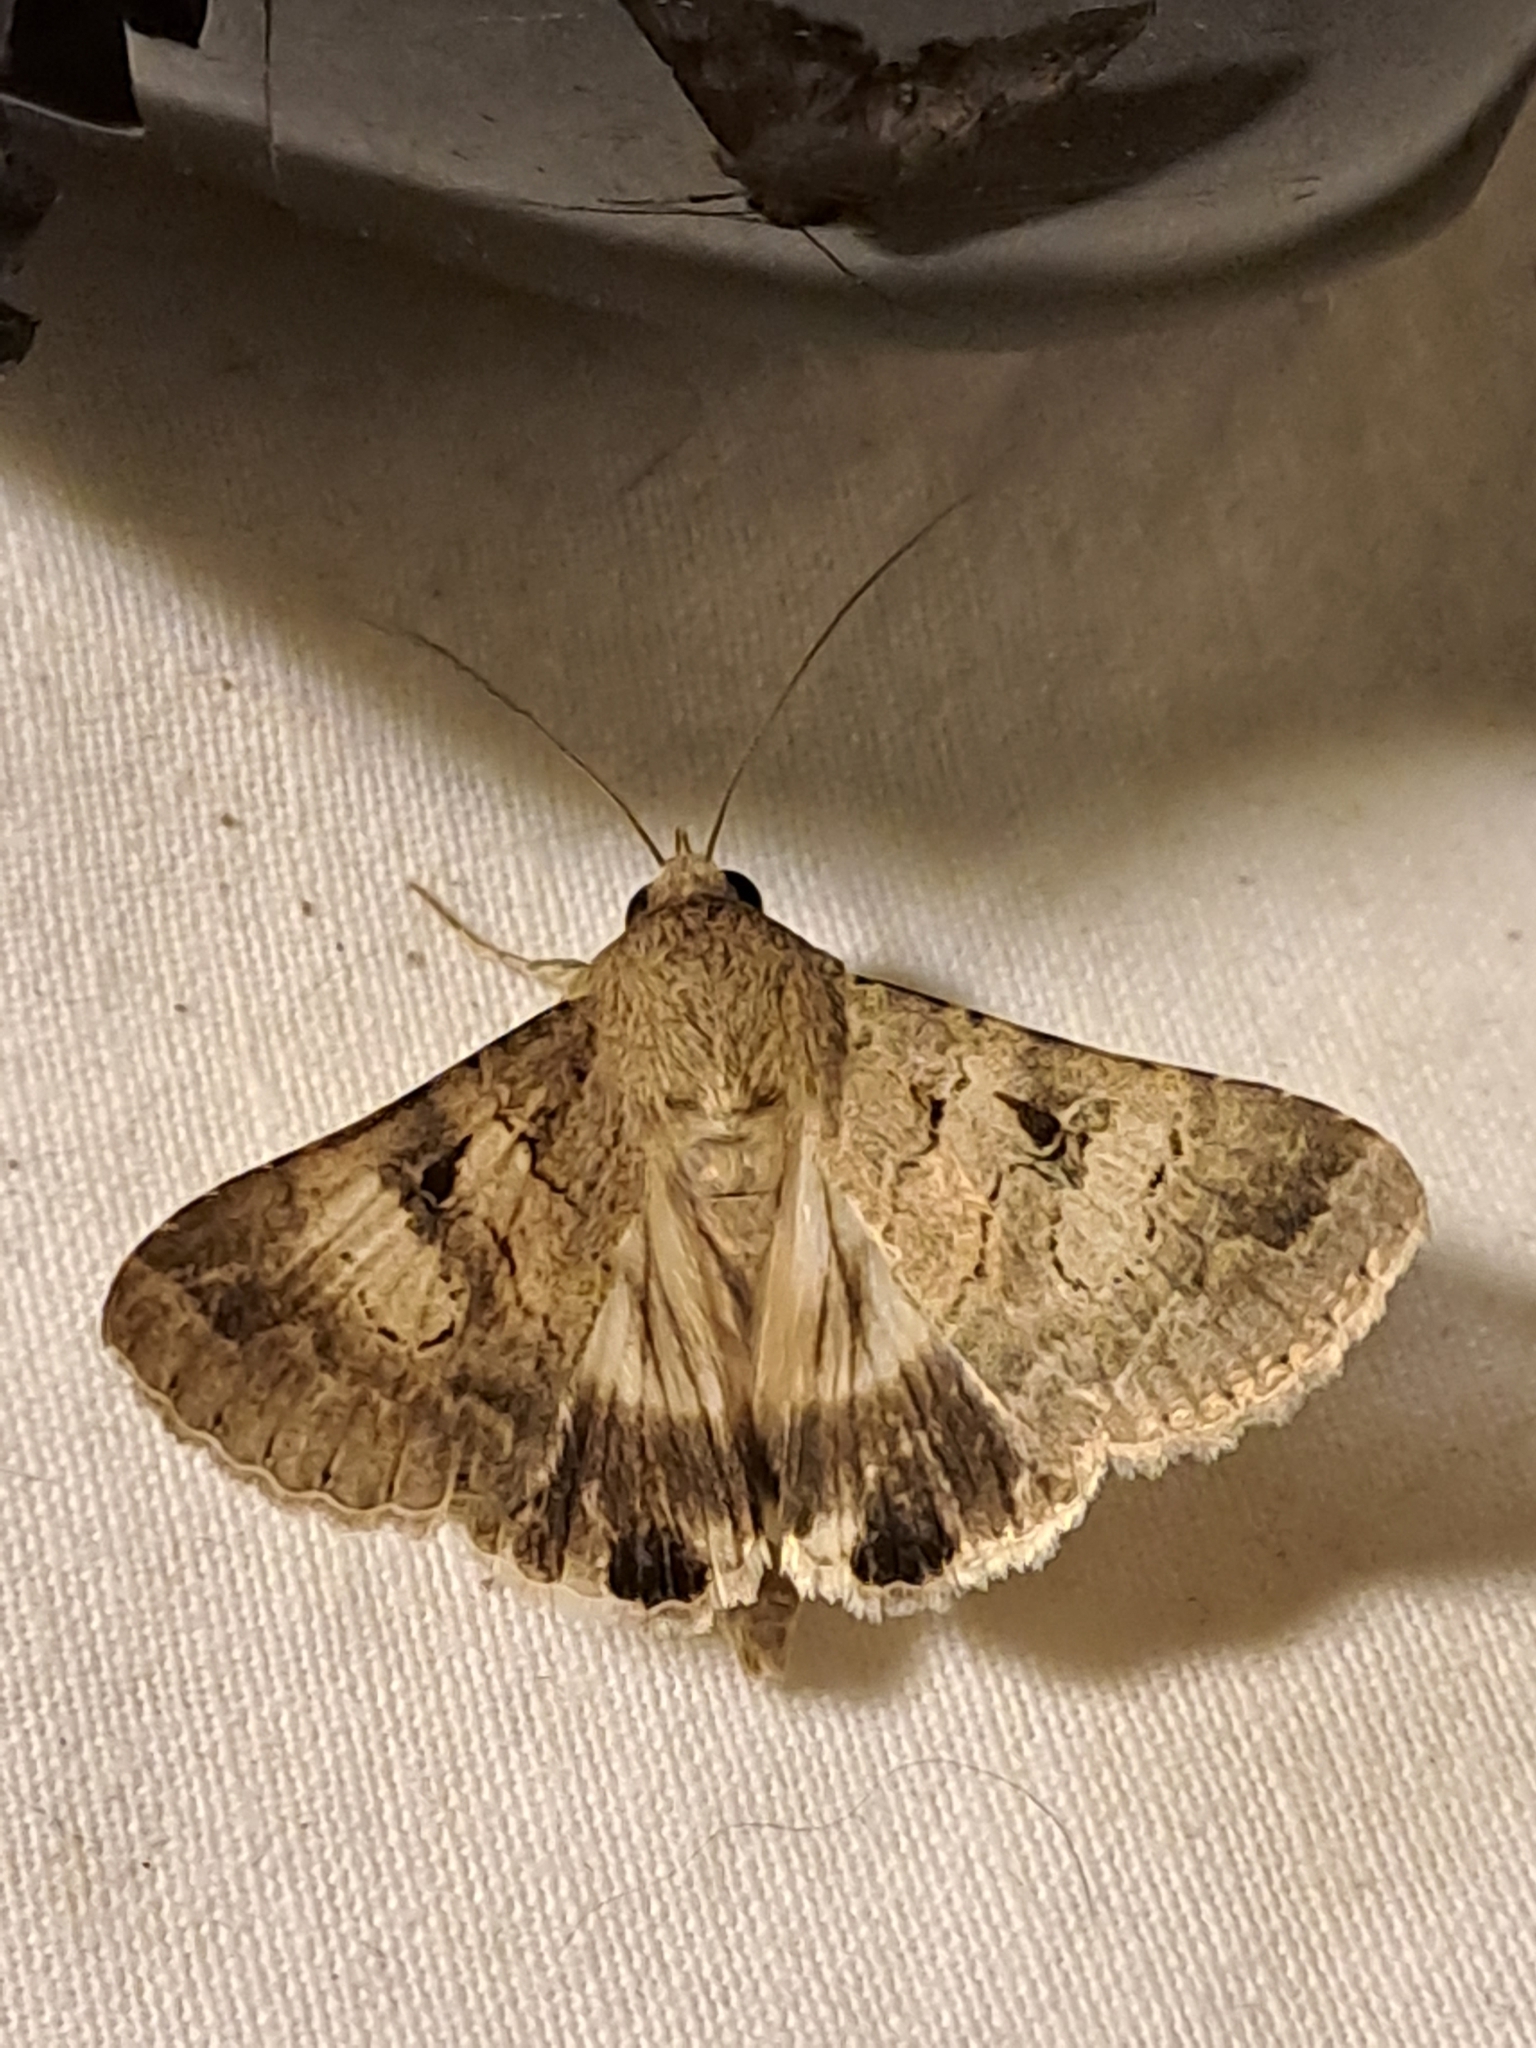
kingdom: Animalia
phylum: Arthropoda
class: Insecta
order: Lepidoptera
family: Erebidae
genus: Melipotis
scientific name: Melipotis walkeri
